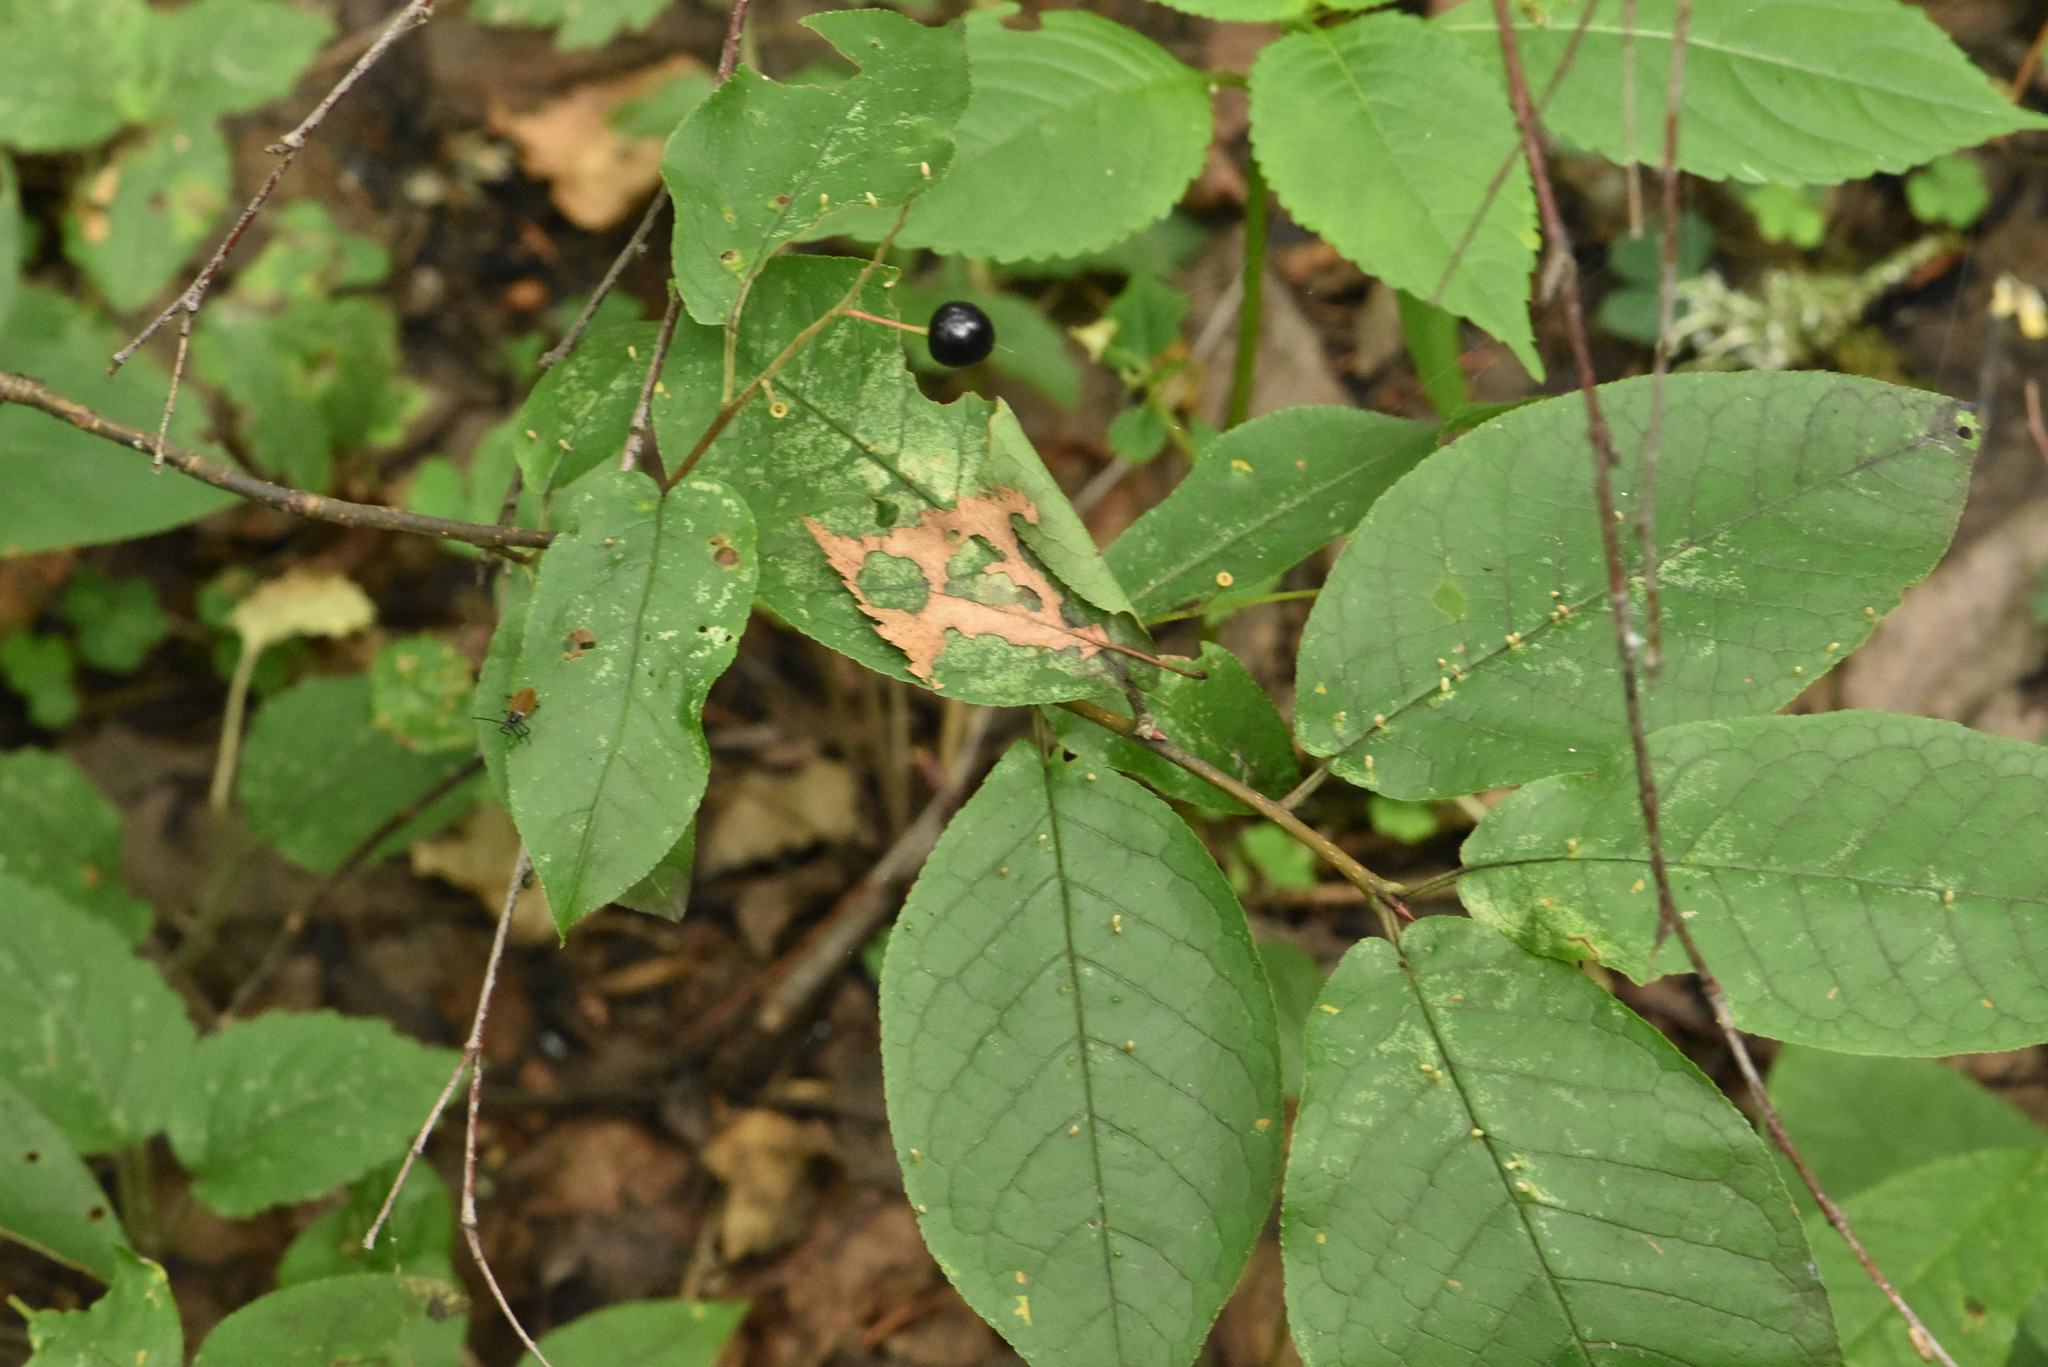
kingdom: Plantae
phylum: Tracheophyta
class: Magnoliopsida
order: Rosales
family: Rosaceae
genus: Prunus
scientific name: Prunus padus
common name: Bird cherry
